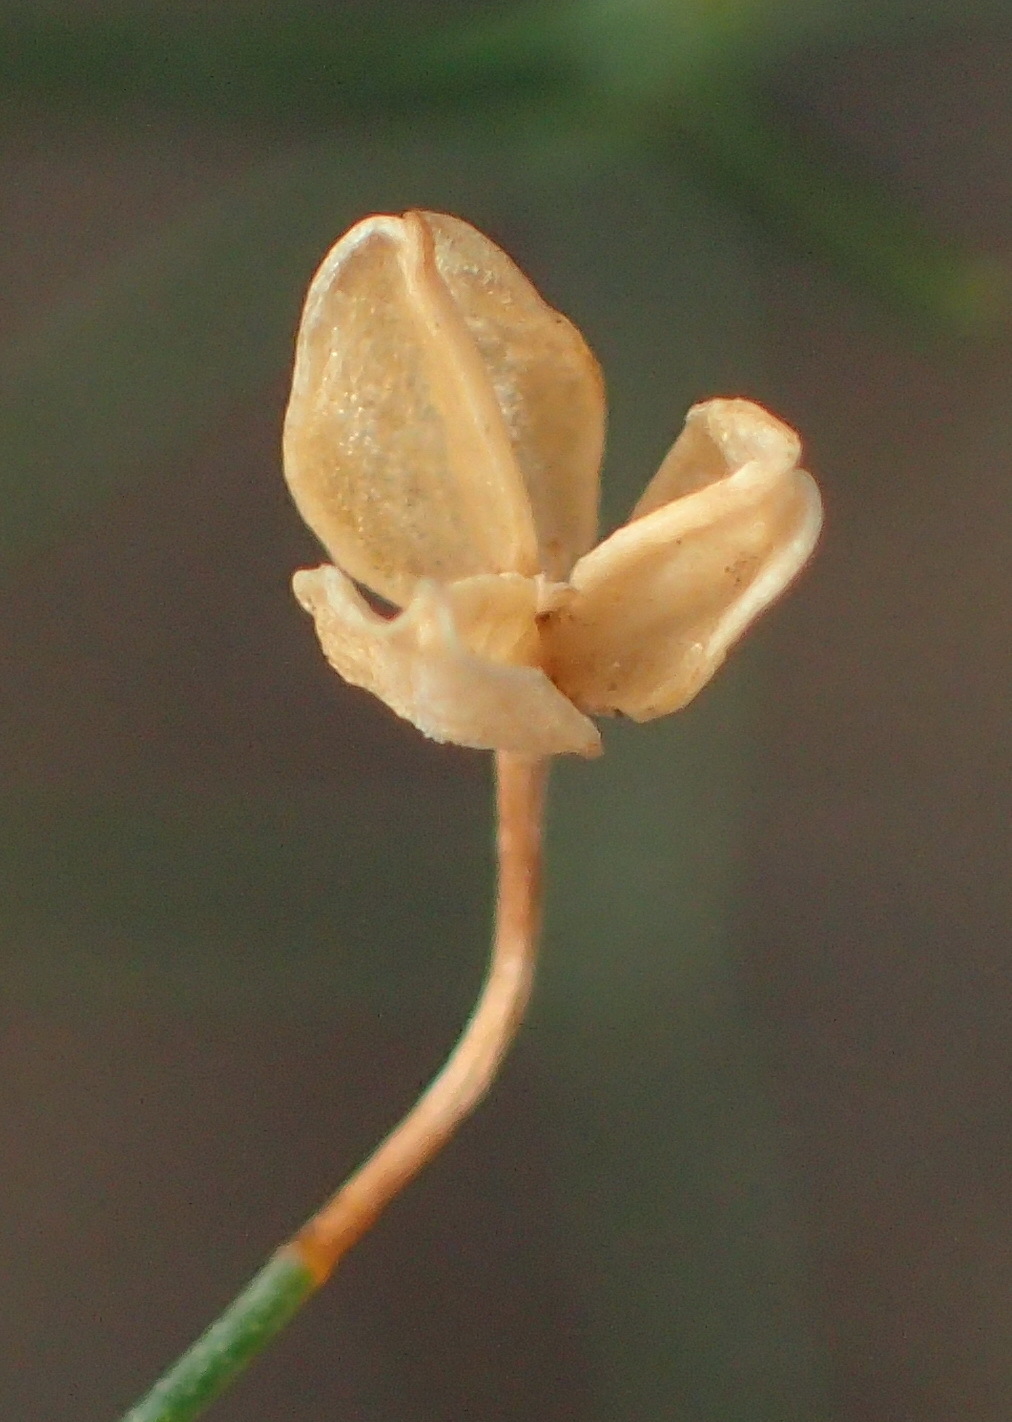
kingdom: Plantae
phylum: Tracheophyta
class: Liliopsida
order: Asparagales
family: Asparagaceae
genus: Drimia
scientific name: Drimia intricata
